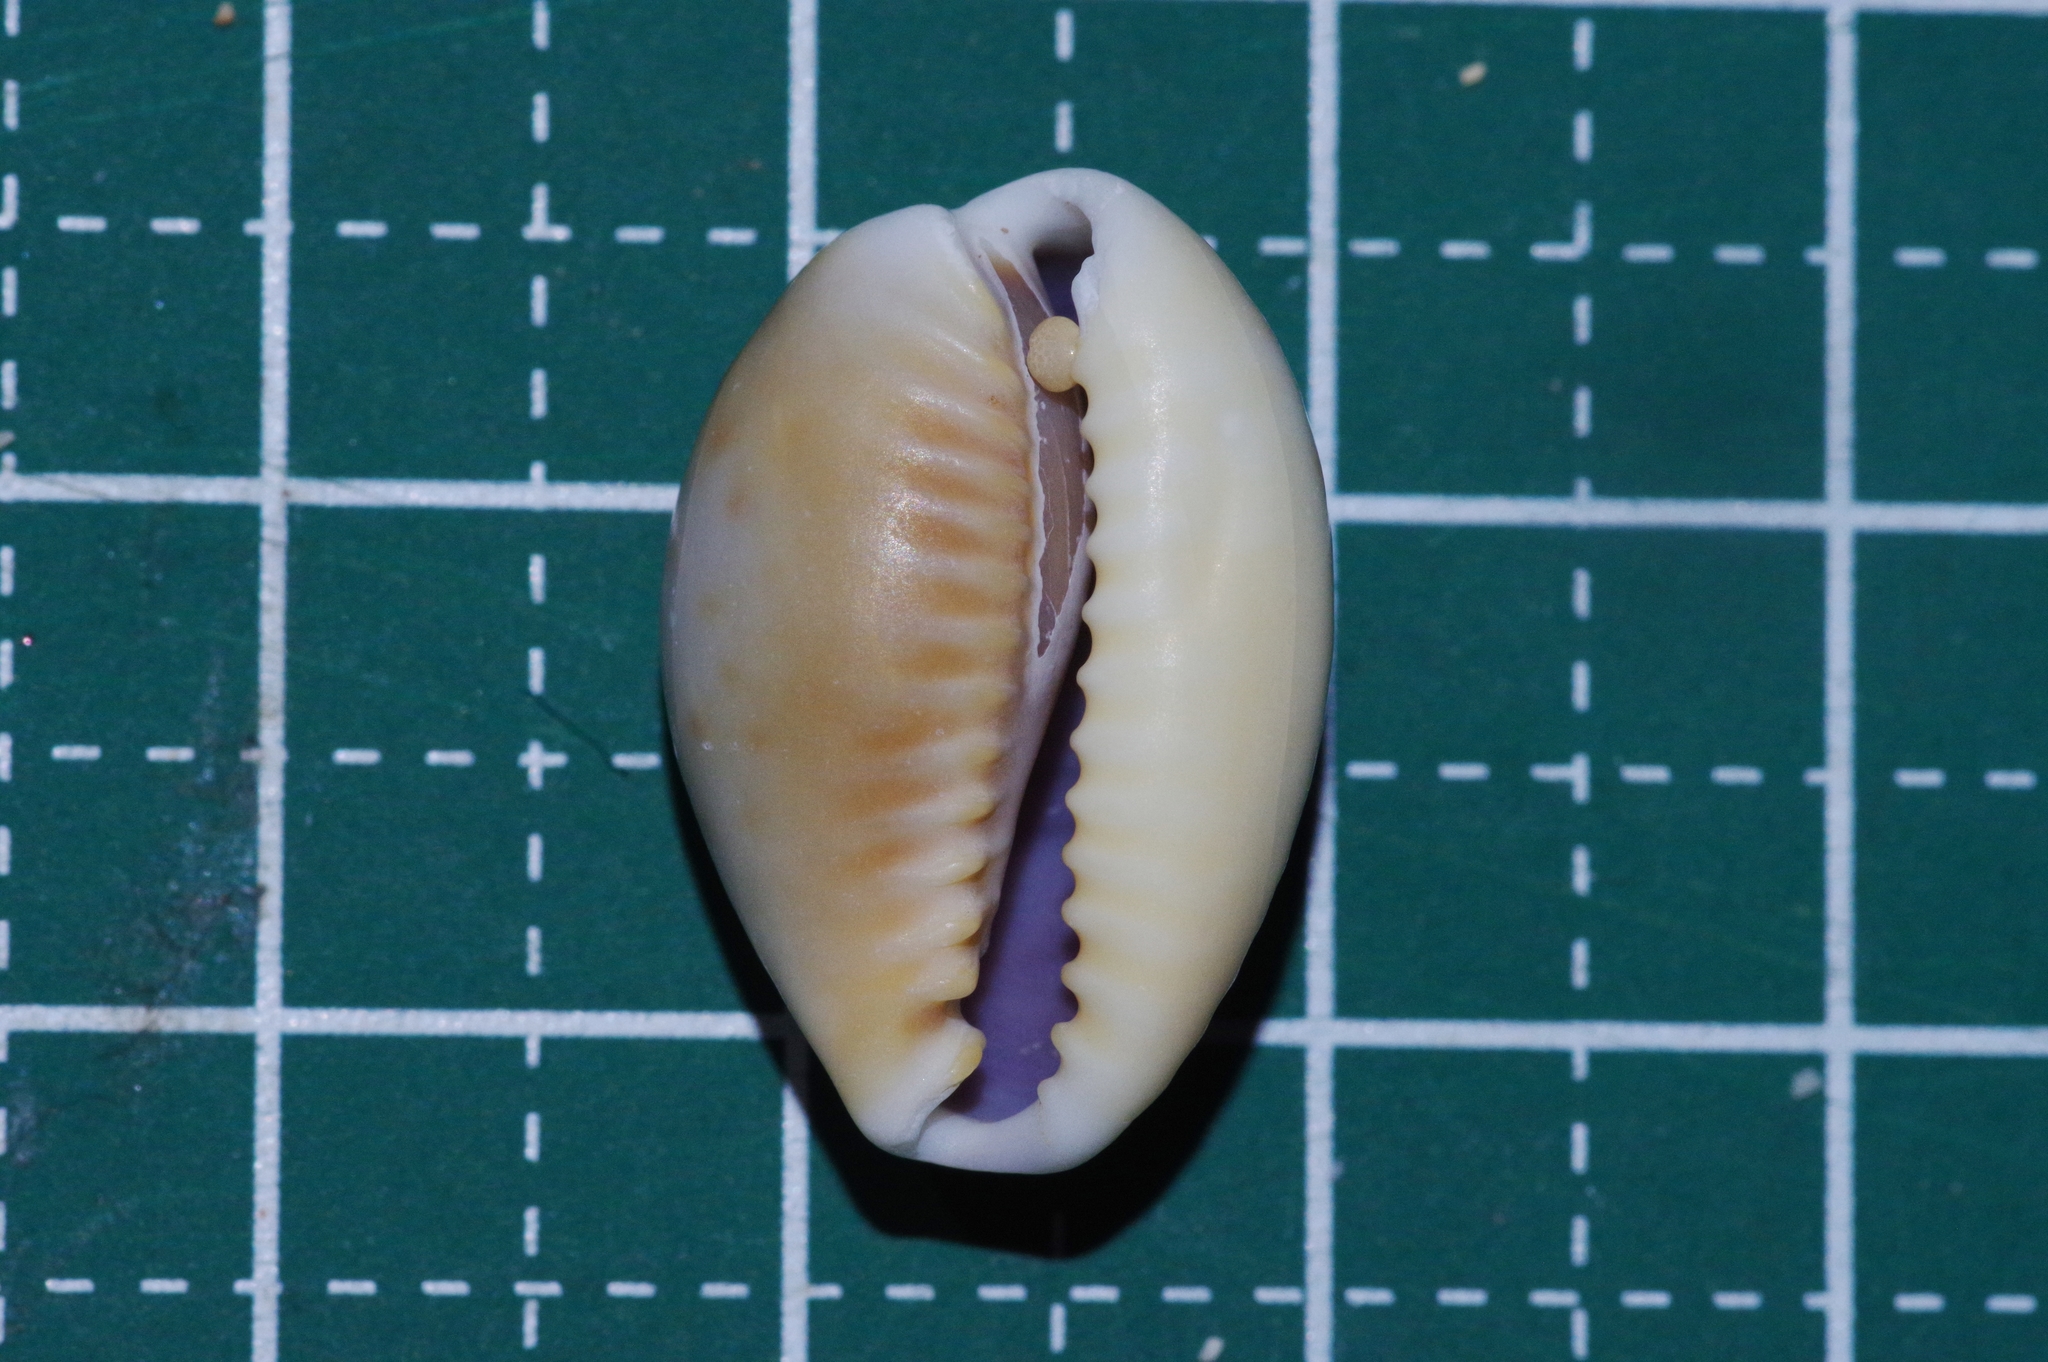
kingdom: Animalia
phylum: Mollusca
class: Gastropoda
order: Littorinimorpha
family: Cypraeidae
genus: Naria
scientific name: Naria helvola
